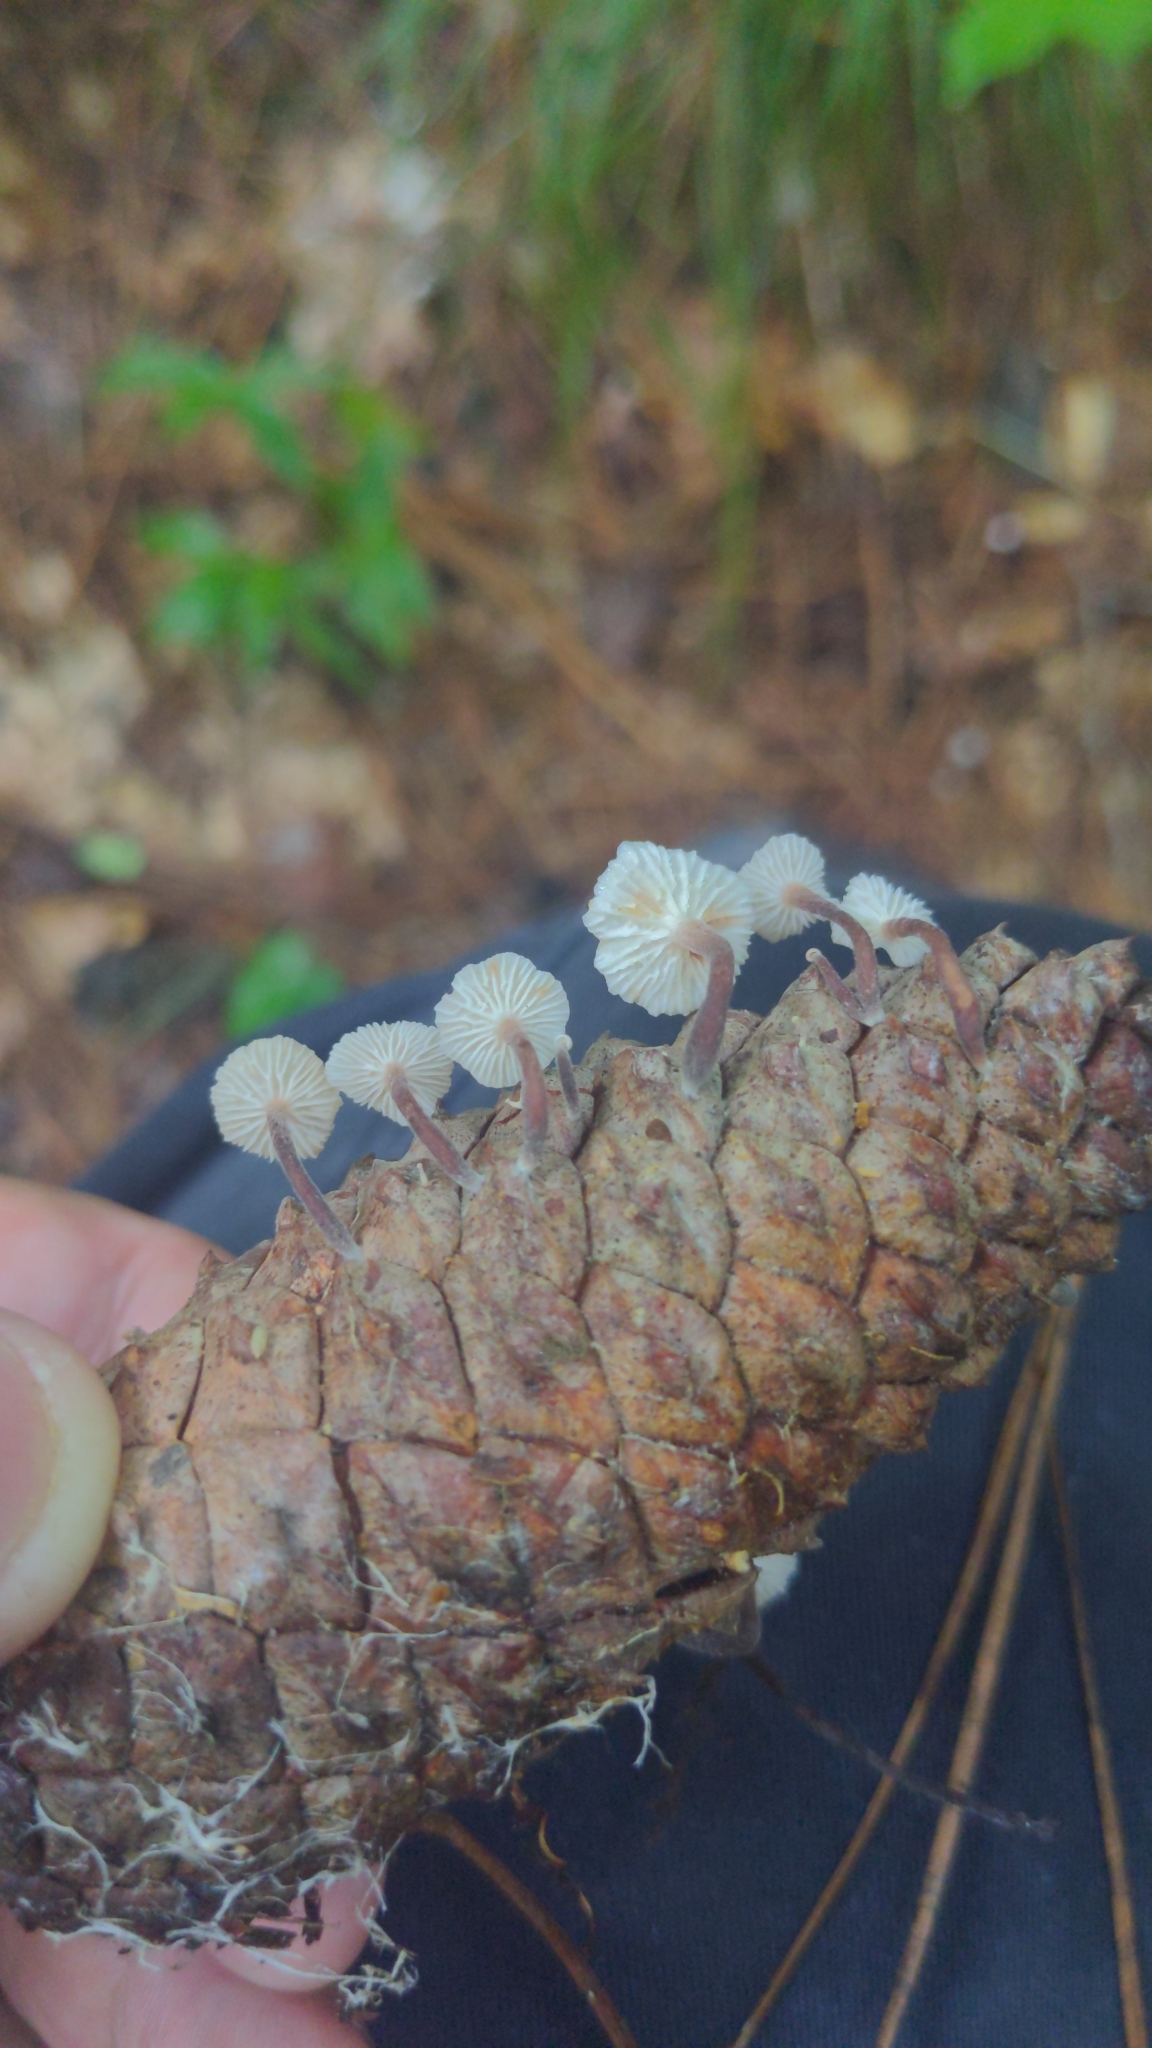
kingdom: Fungi
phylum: Basidiomycota
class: Agaricomycetes
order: Agaricales
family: Marasmiaceae
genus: Baeospora
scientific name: Baeospora myosura
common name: Conifercone cap
